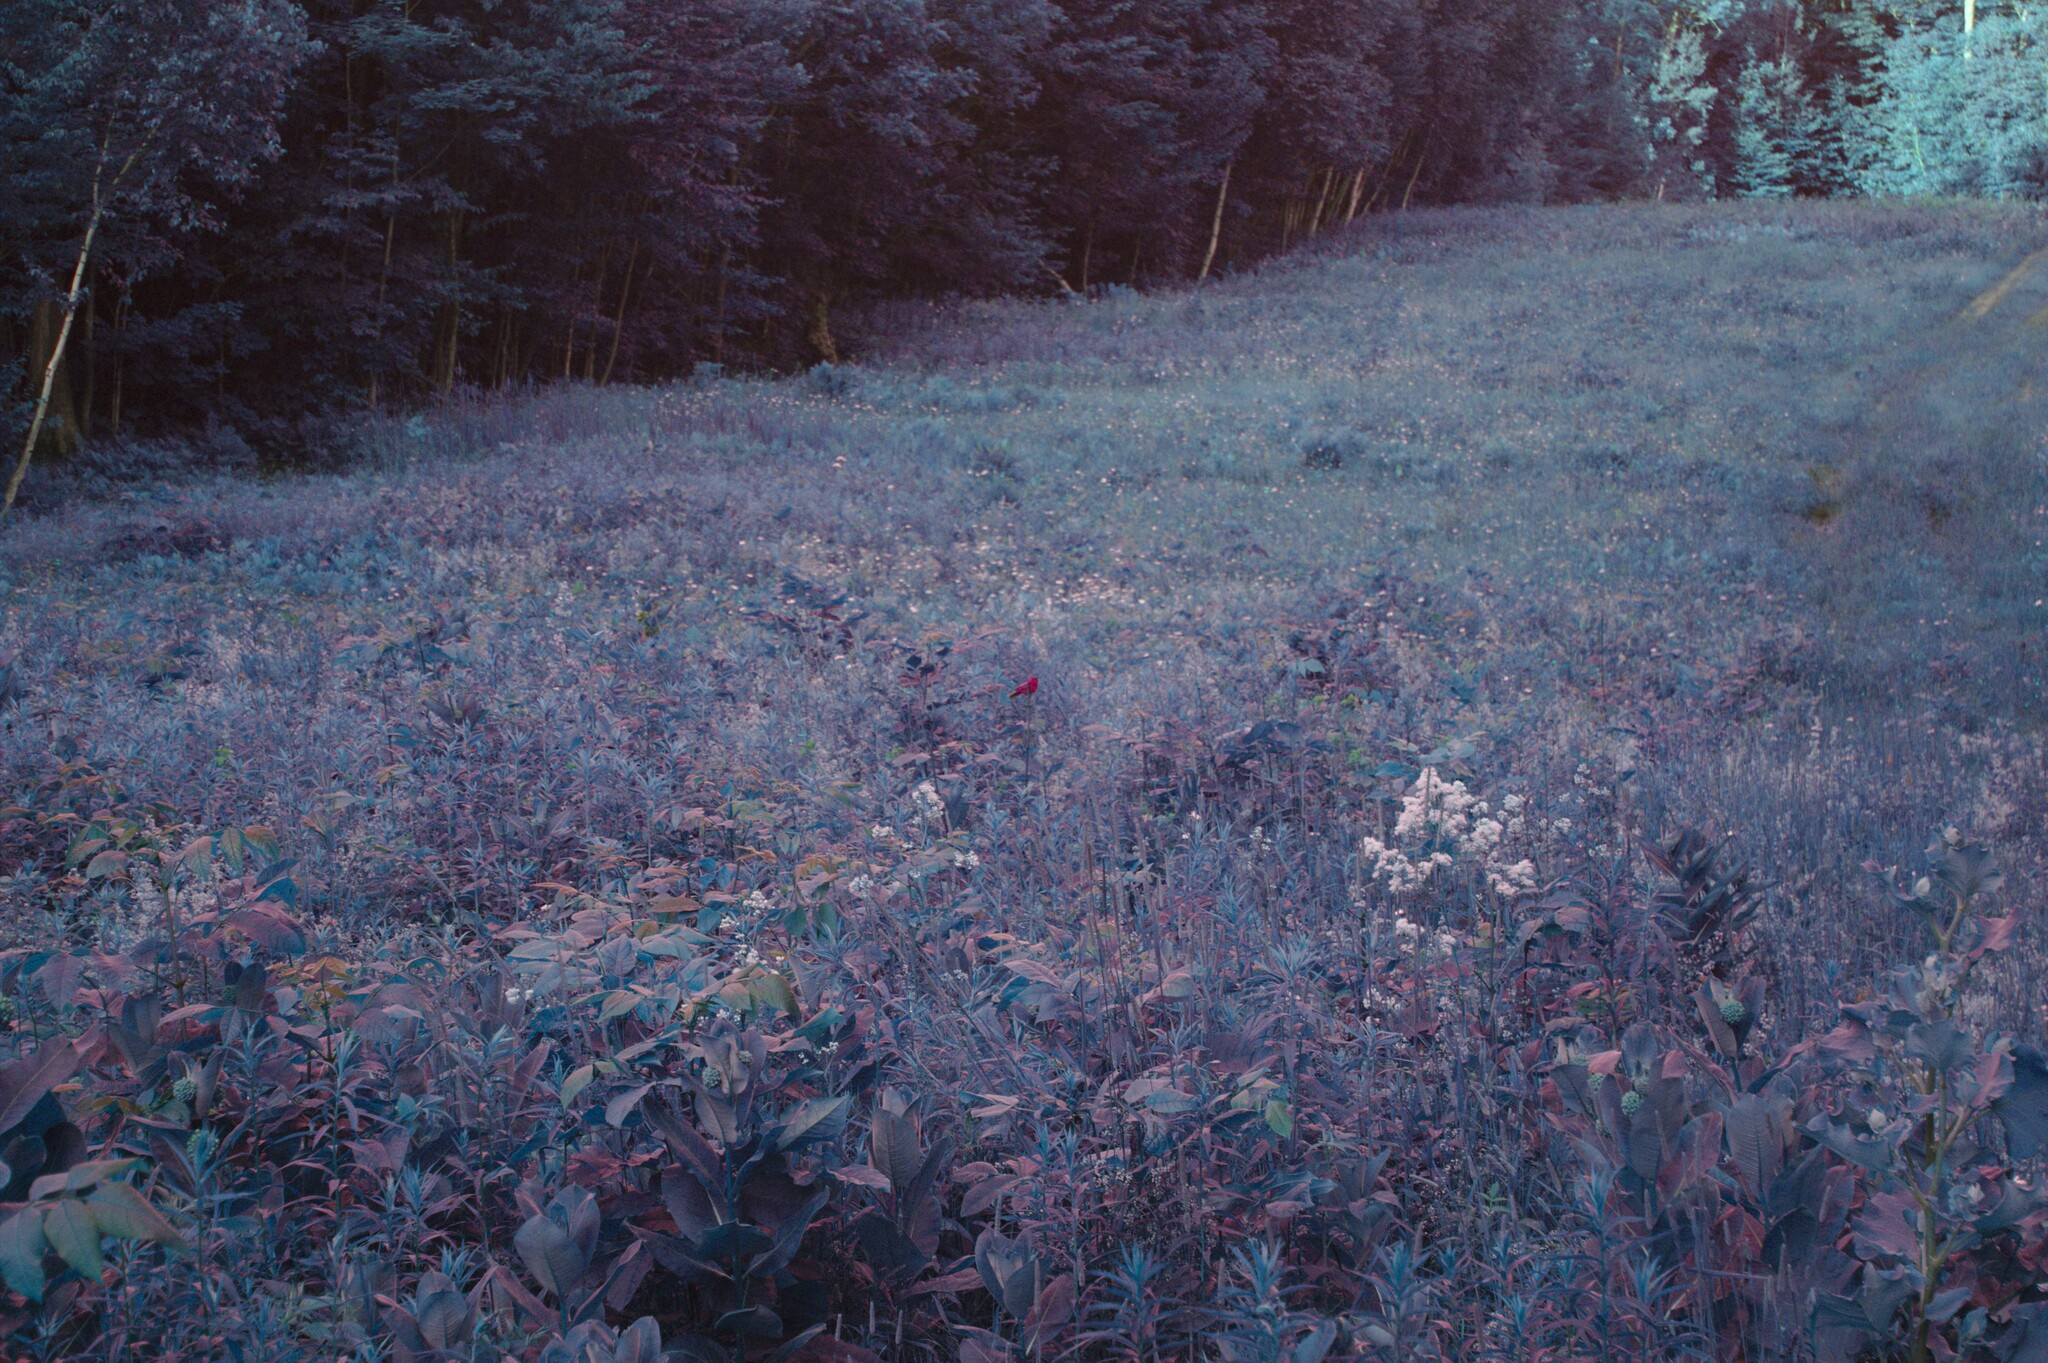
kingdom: Animalia
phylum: Chordata
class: Aves
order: Passeriformes
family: Cardinalidae
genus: Passerina
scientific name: Passerina cyanea
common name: Indigo bunting
